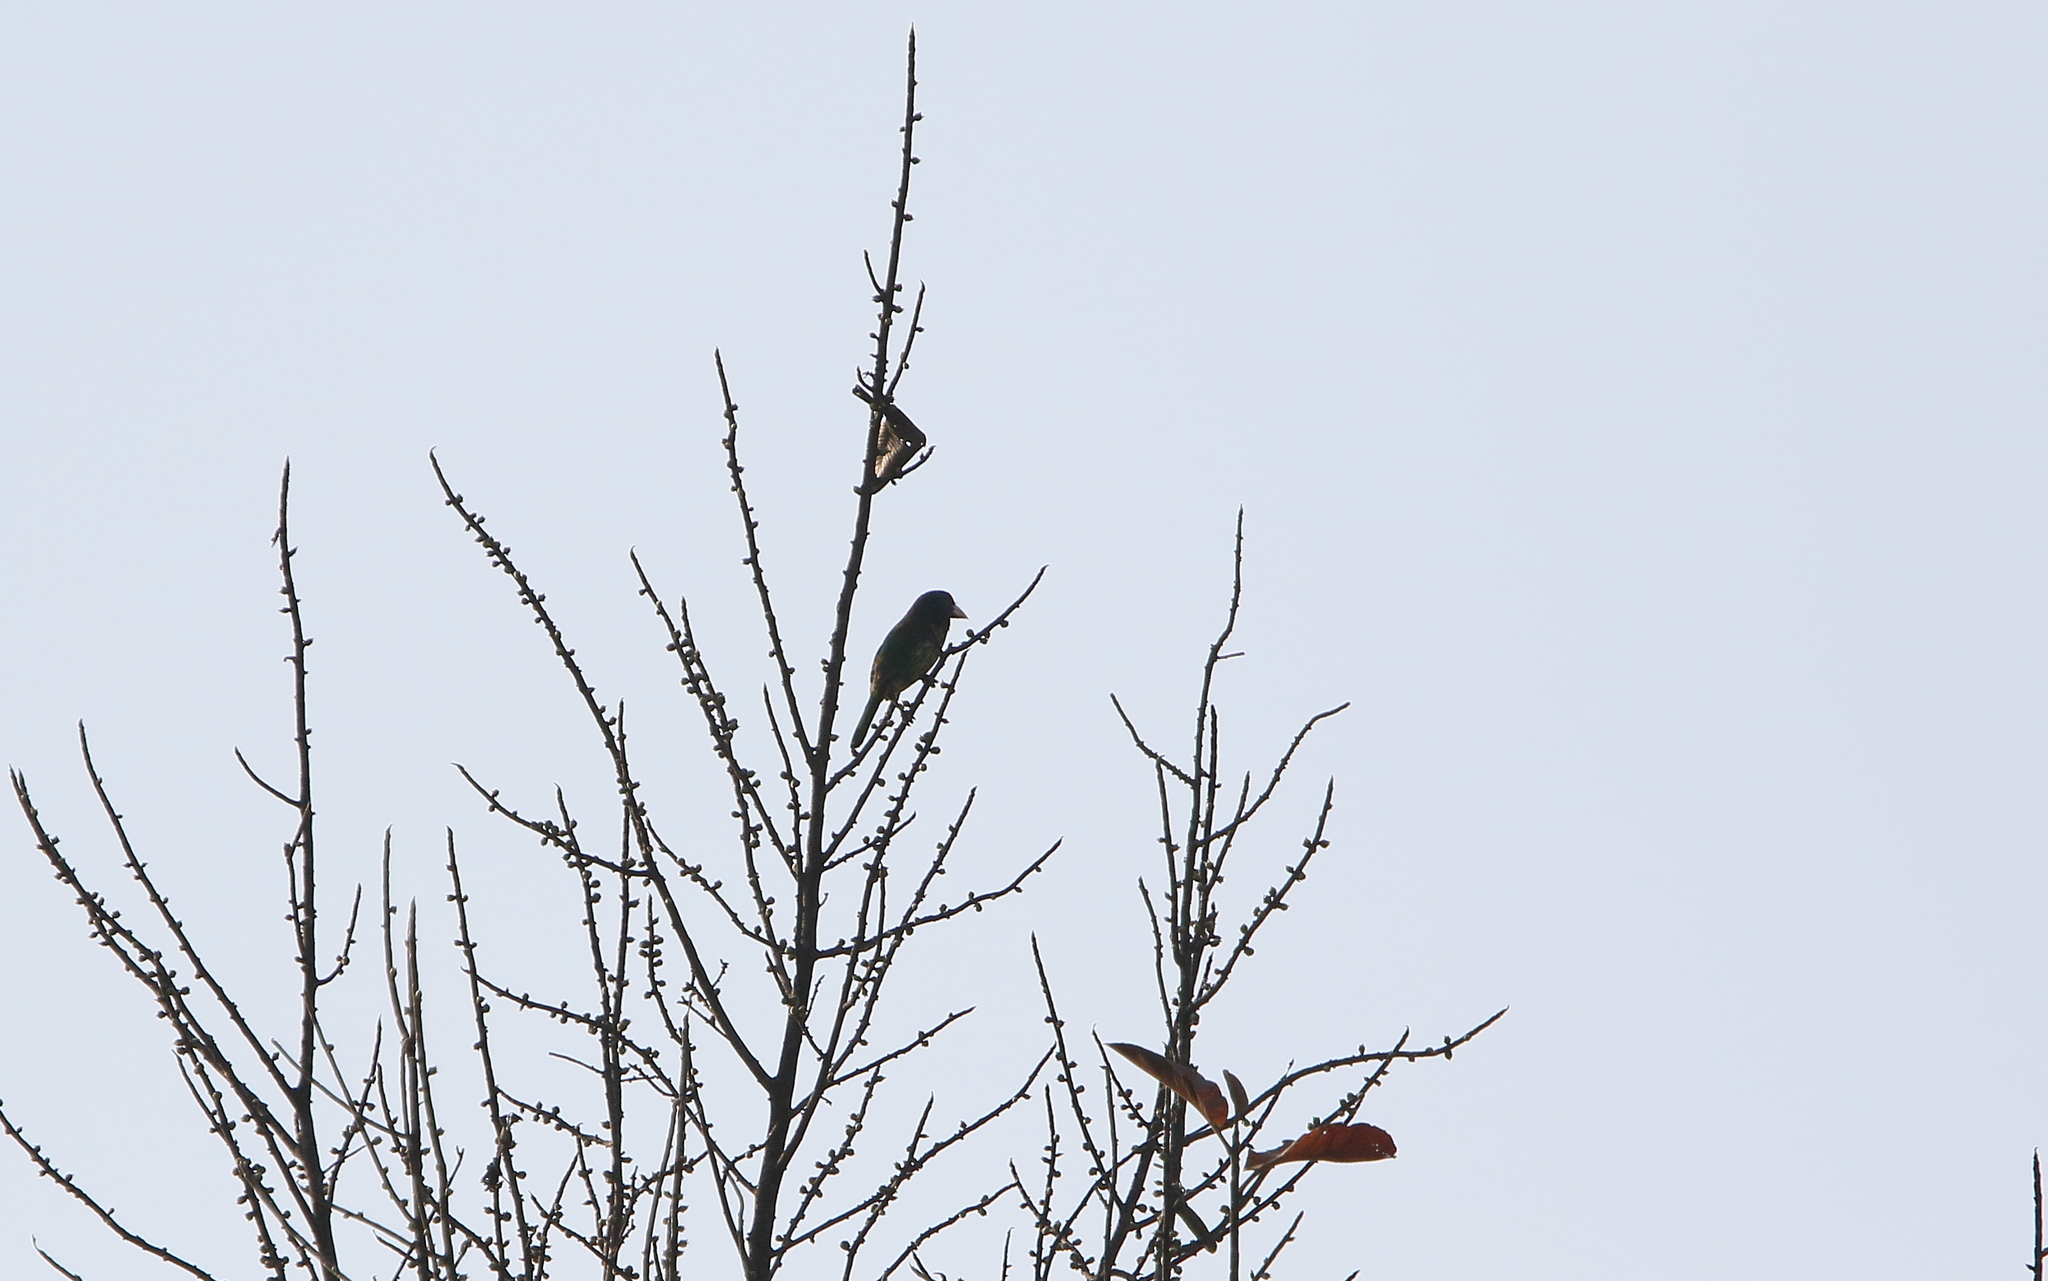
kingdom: Animalia
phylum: Chordata
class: Aves
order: Piciformes
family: Megalaimidae
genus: Psilopogon
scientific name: Psilopogon virens
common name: Great barbet
